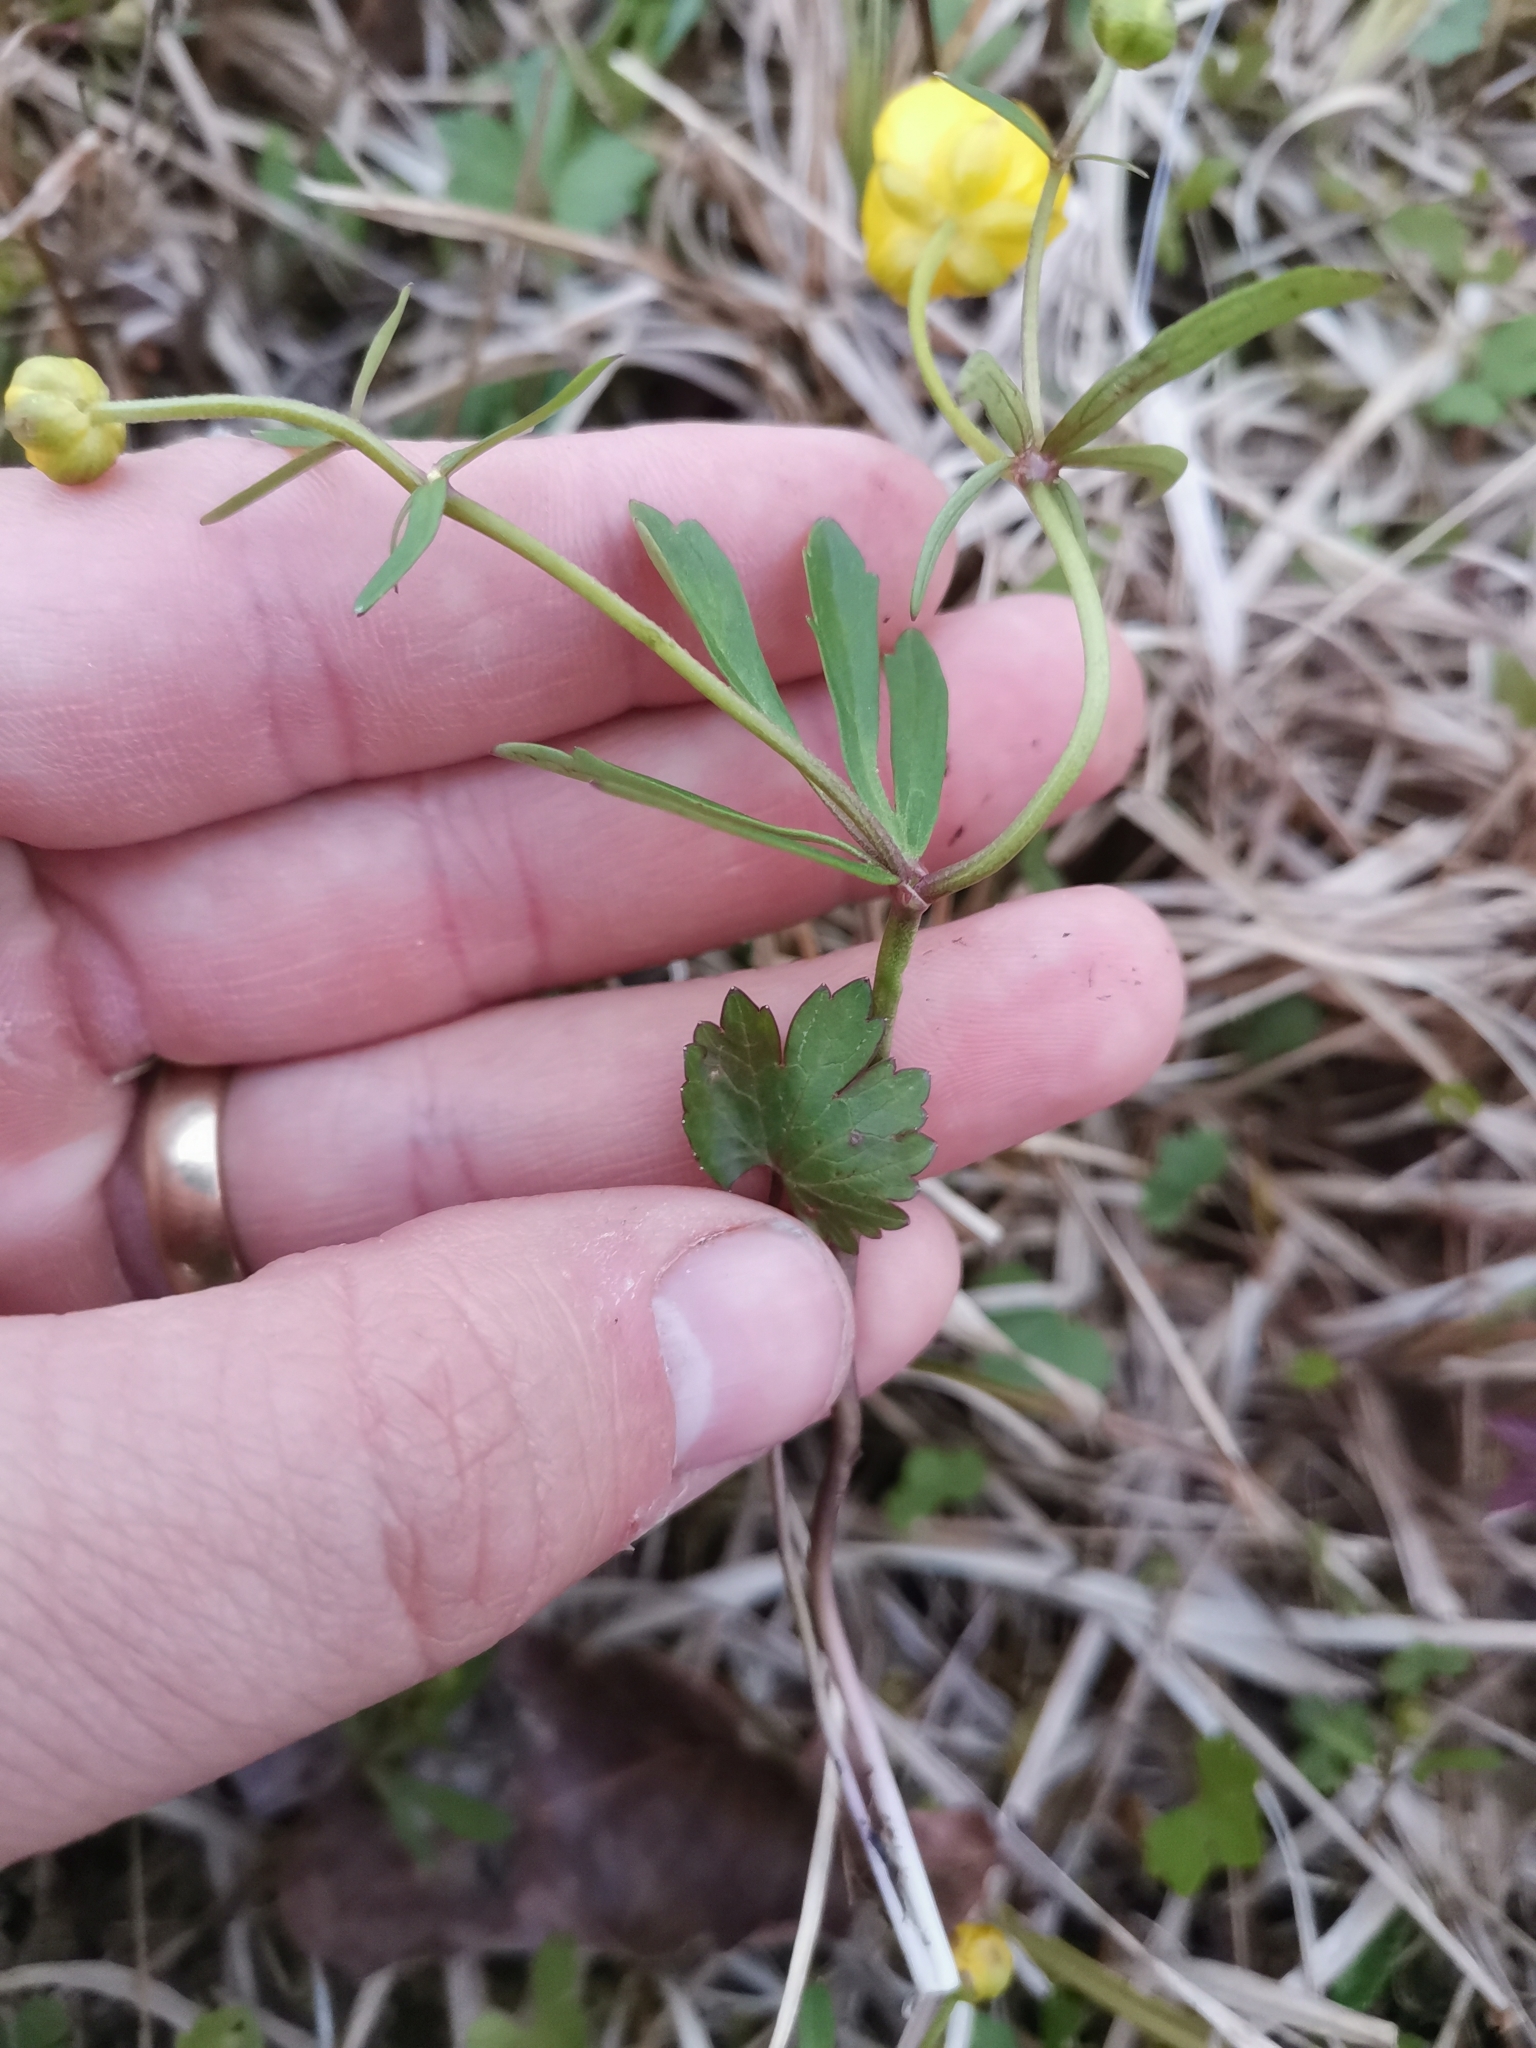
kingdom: Plantae
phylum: Tracheophyta
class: Magnoliopsida
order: Ranunculales
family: Ranunculaceae
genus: Ranunculus
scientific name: Ranunculus auricomus
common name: Goldilocks buttercup
